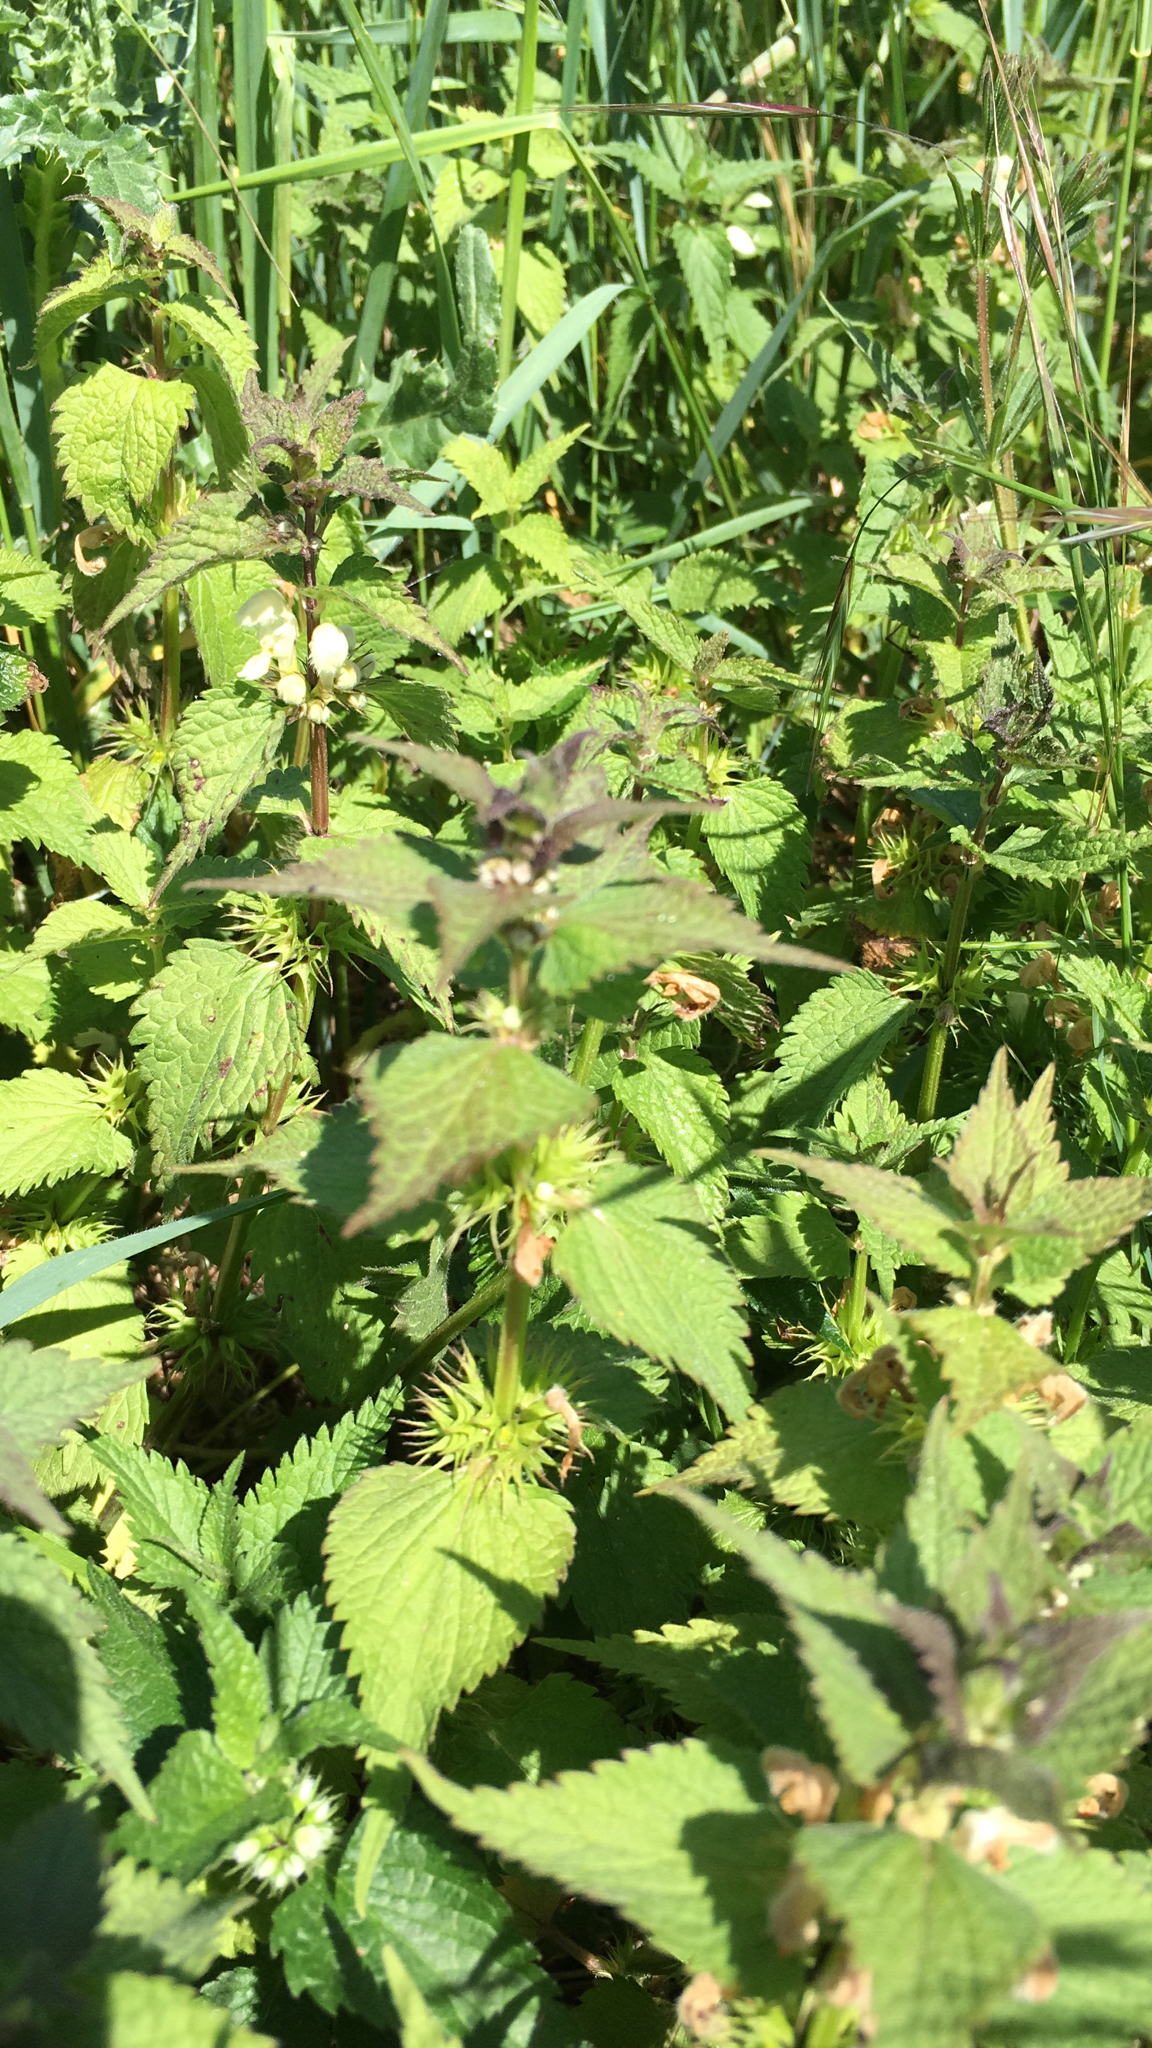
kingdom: Plantae
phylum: Tracheophyta
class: Magnoliopsida
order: Lamiales
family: Lamiaceae
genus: Lamium
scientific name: Lamium album
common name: White dead-nettle
